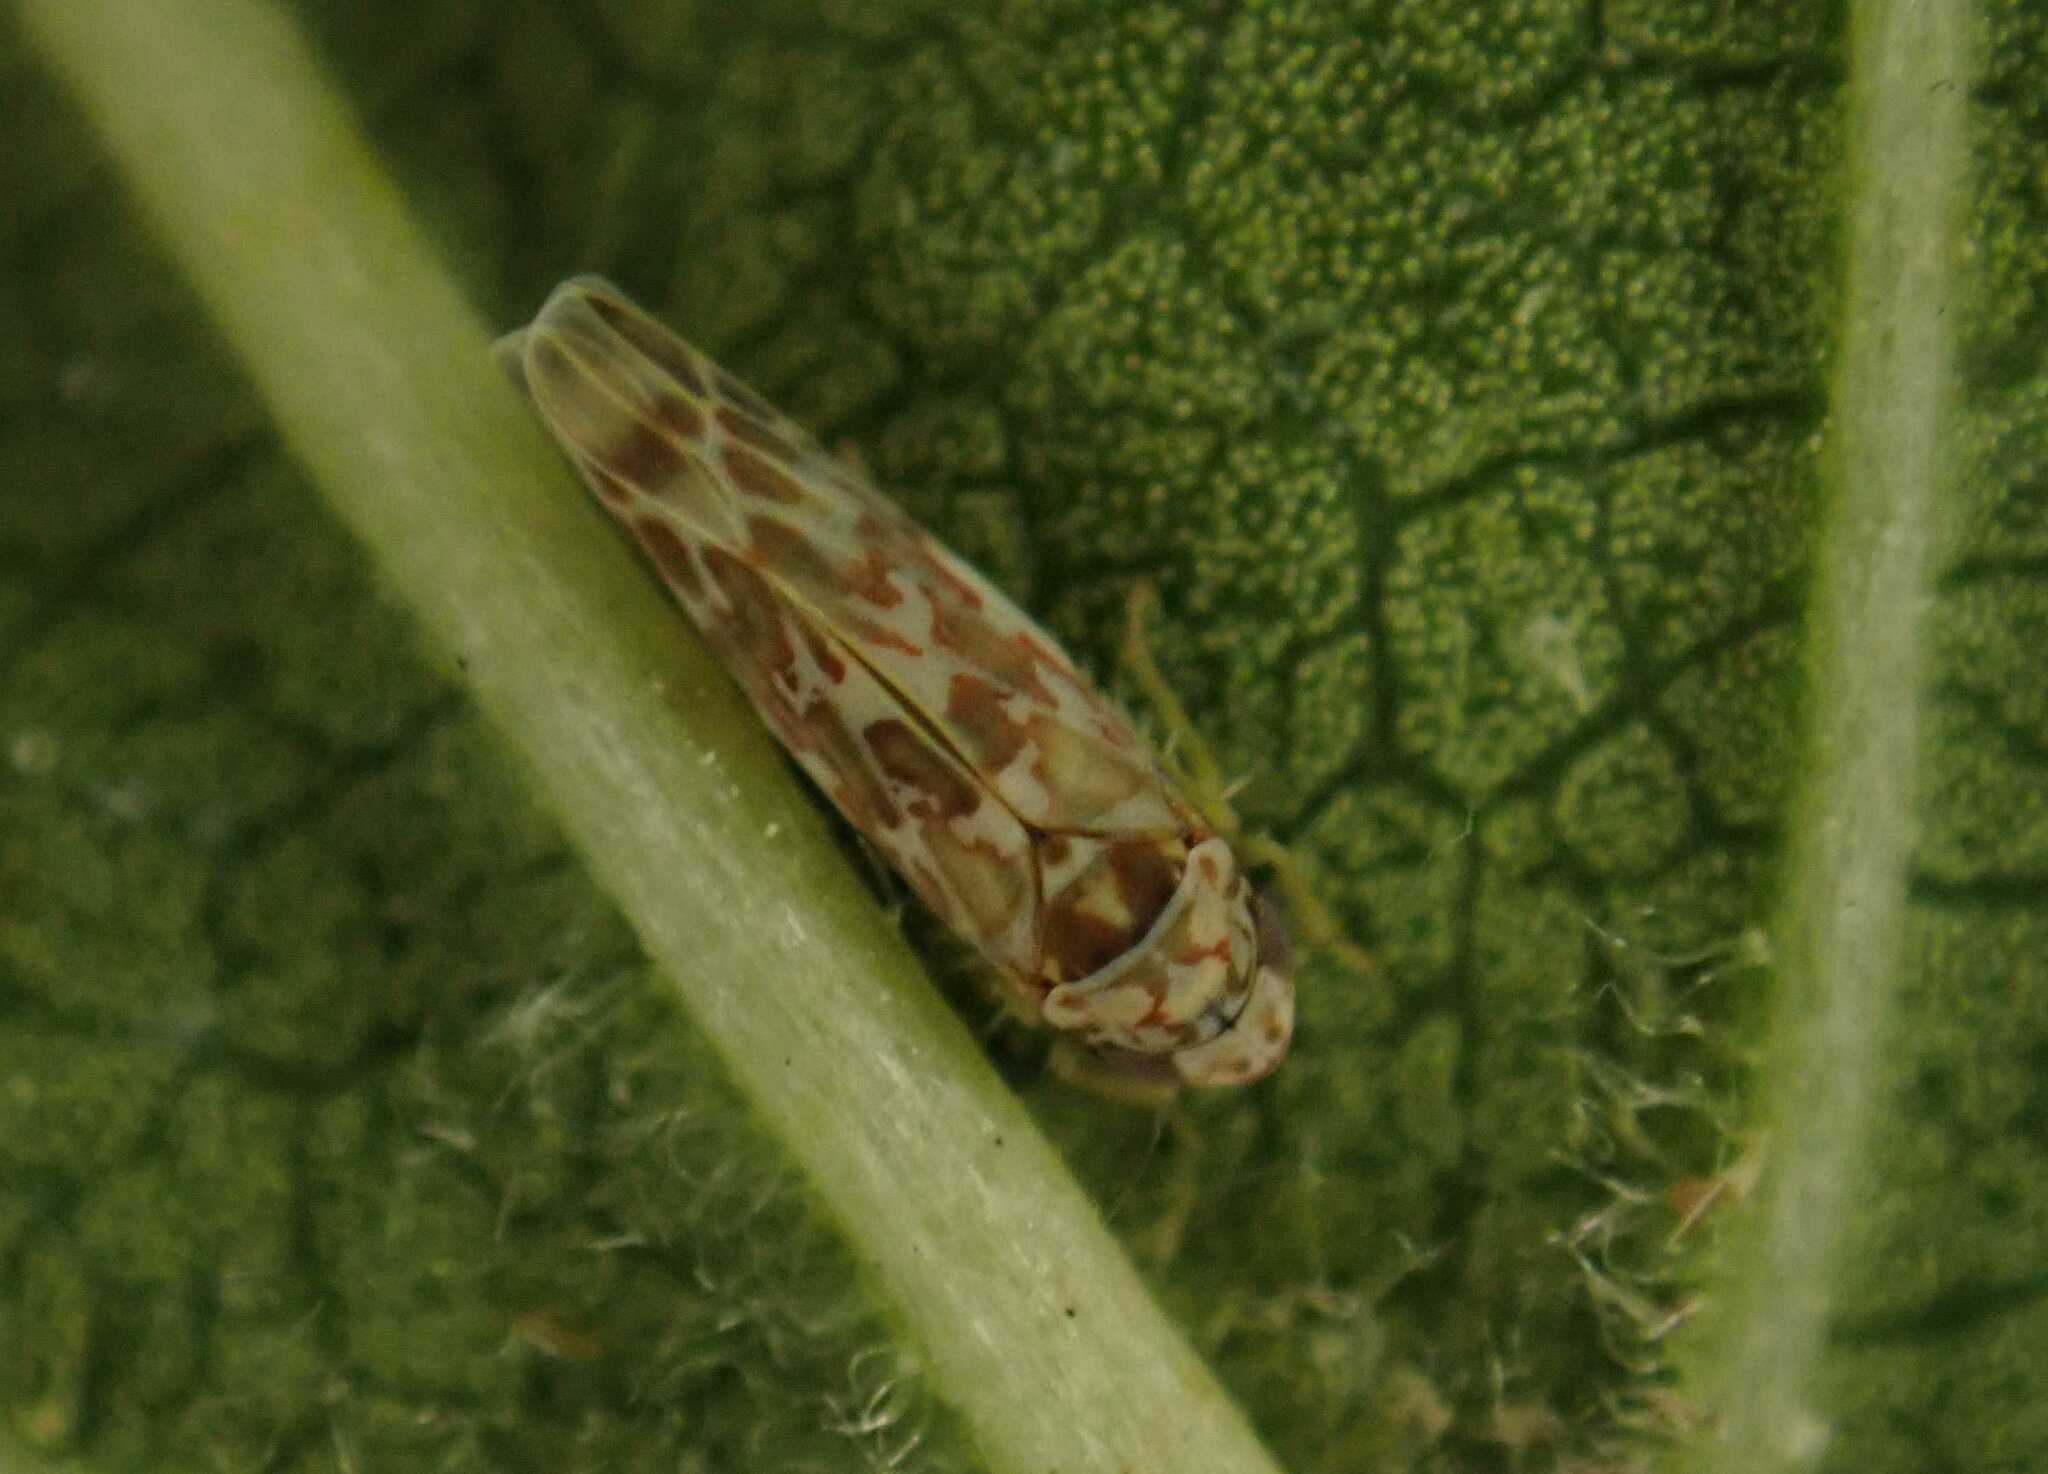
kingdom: Animalia
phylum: Arthropoda
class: Insecta
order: Hemiptera
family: Cicadellidae
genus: Tautoneura
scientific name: Tautoneura polymitusa
